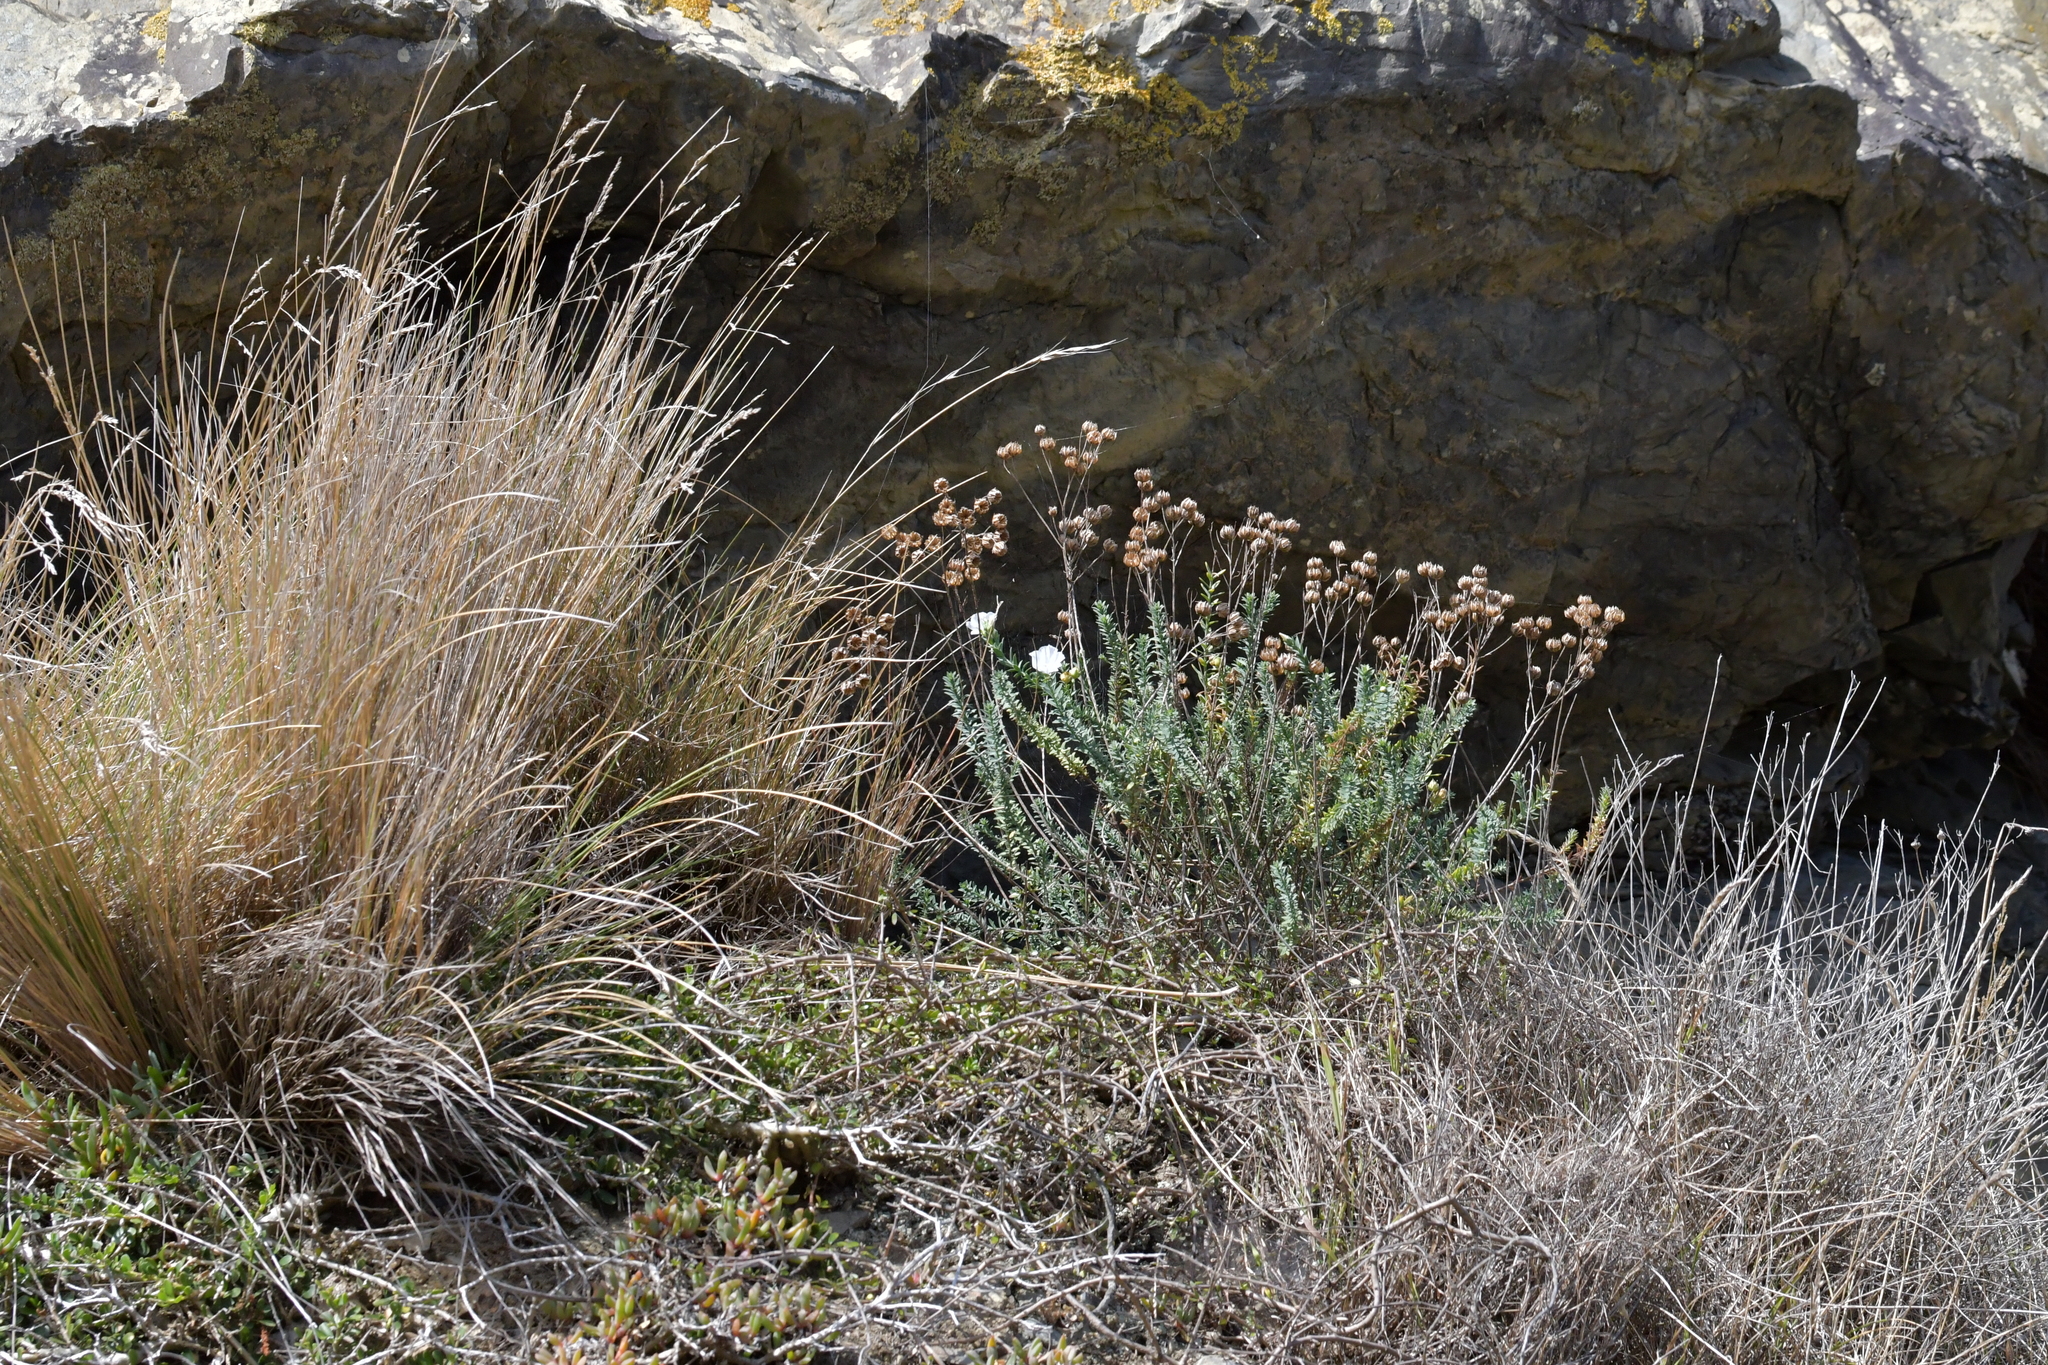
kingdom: Plantae
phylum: Tracheophyta
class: Magnoliopsida
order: Malpighiales
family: Linaceae
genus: Linum
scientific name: Linum monogynum
